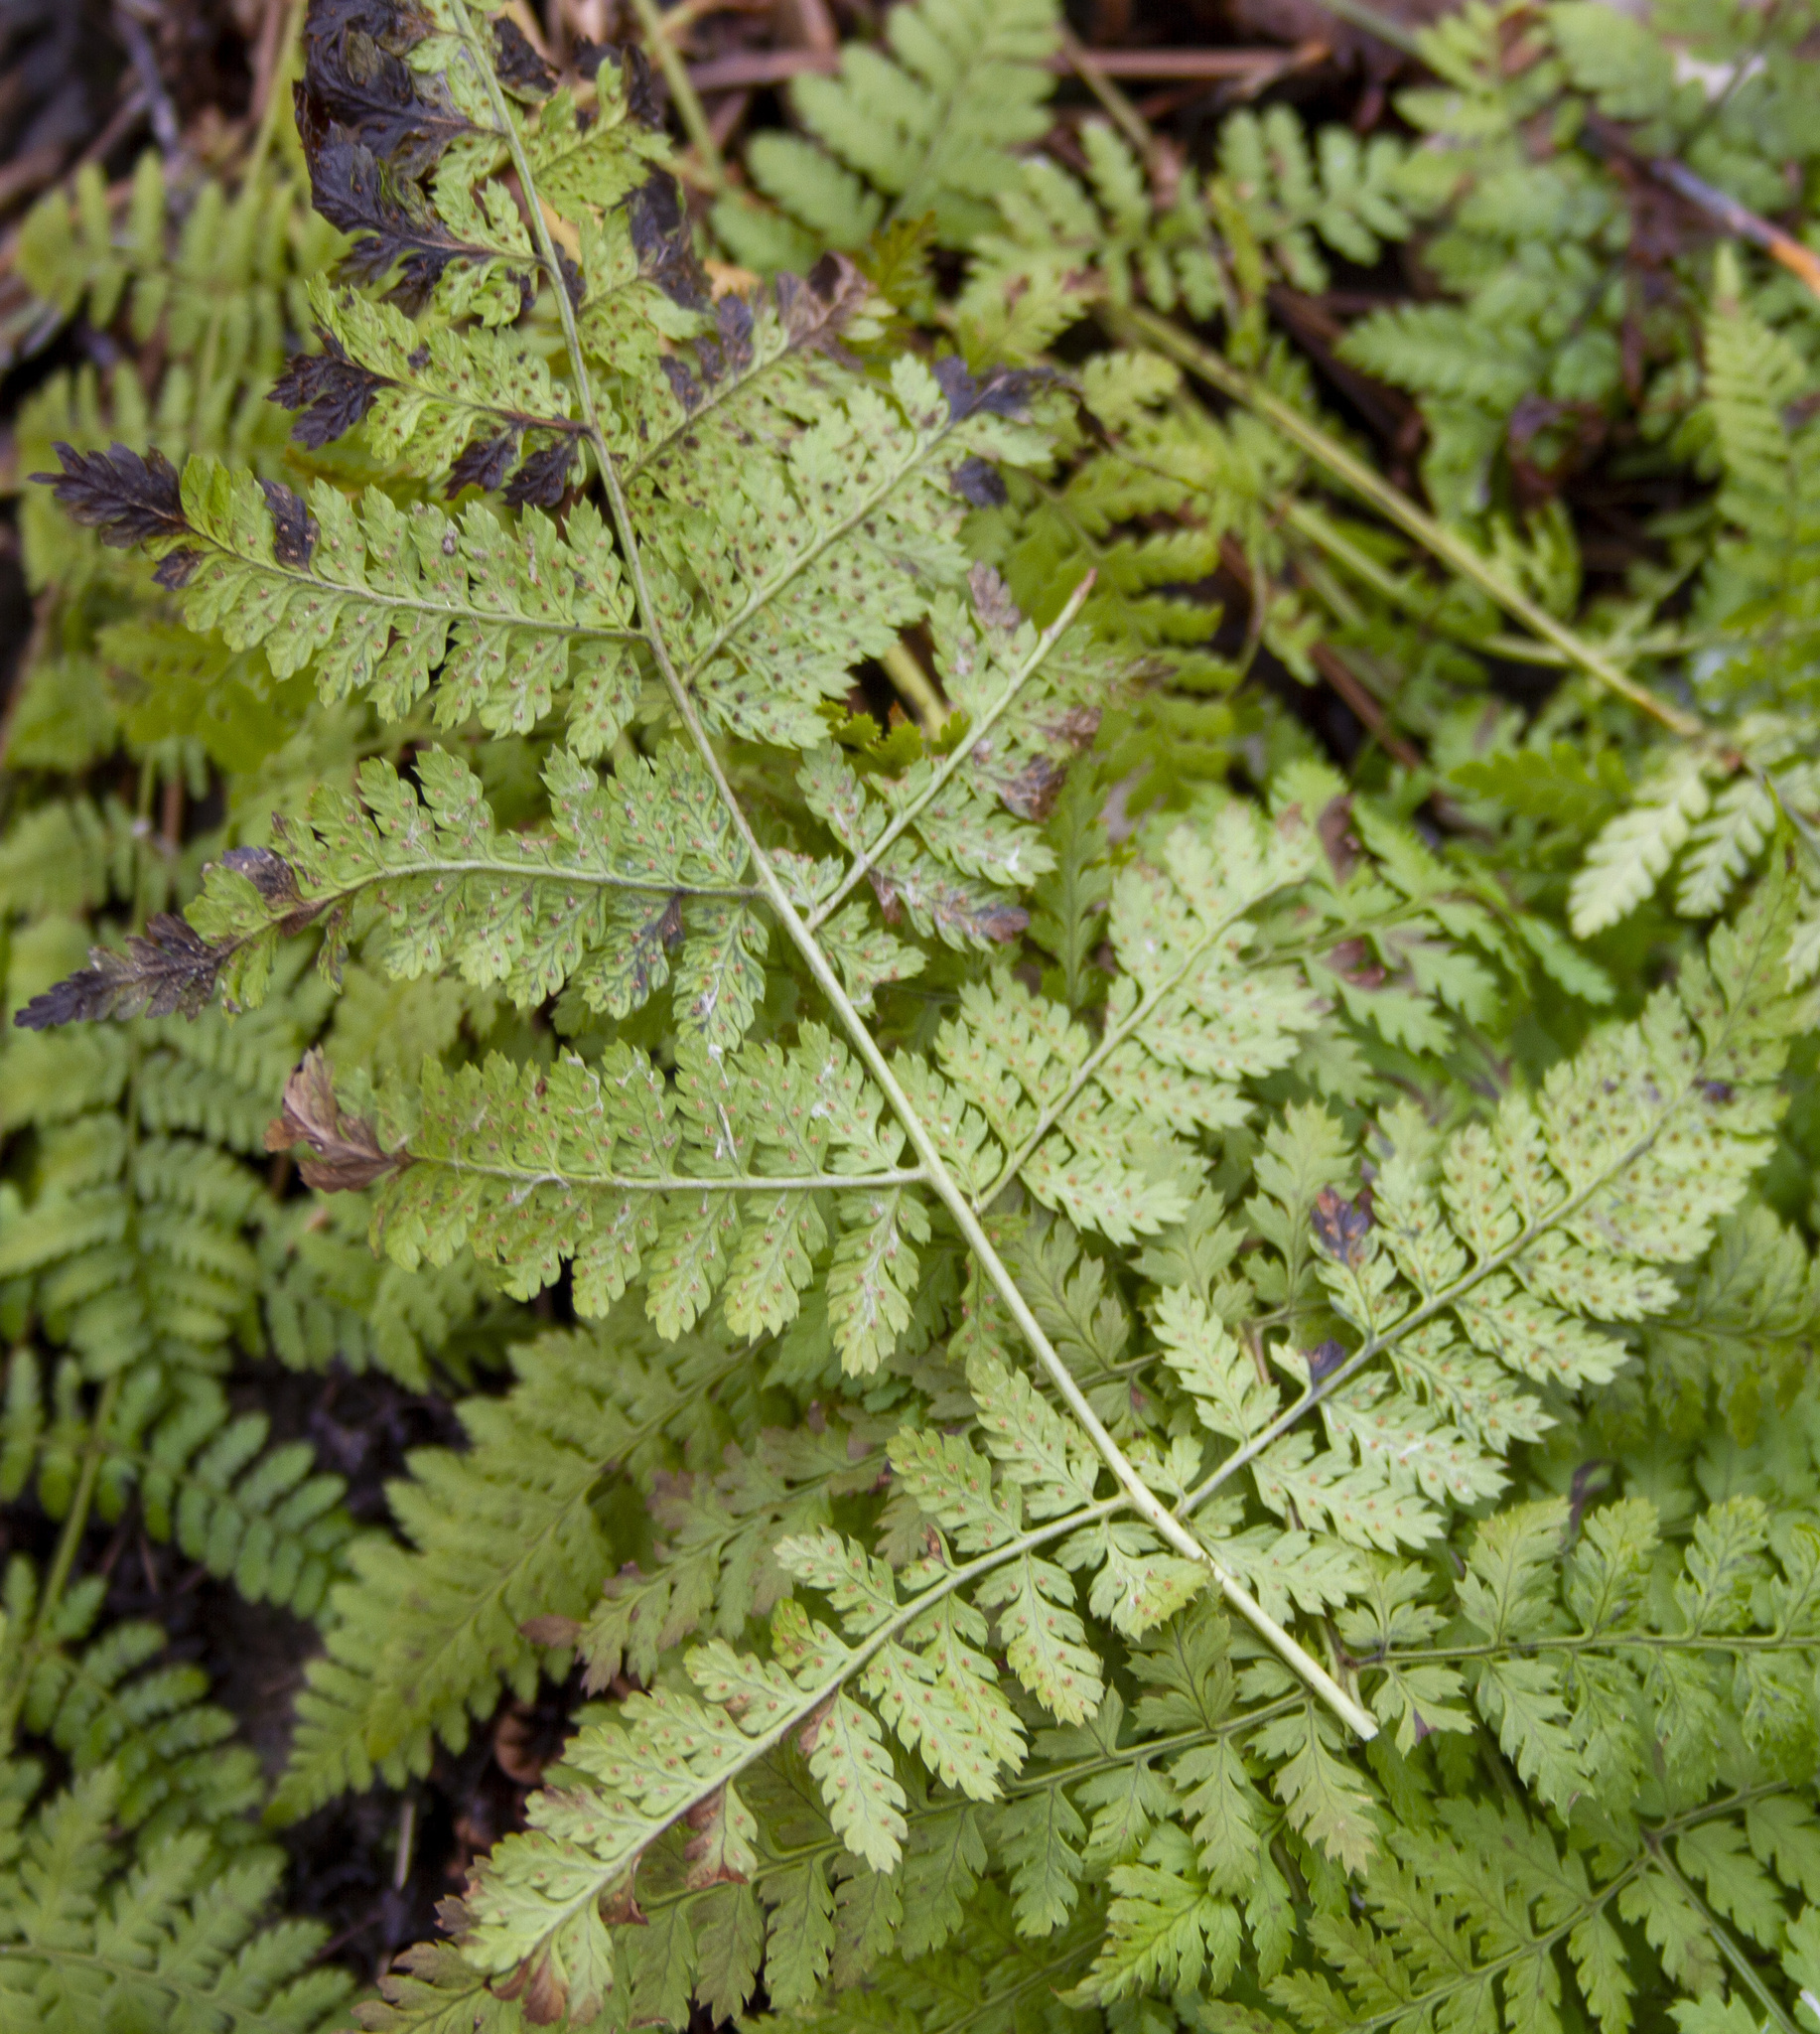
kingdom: Plantae
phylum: Tracheophyta
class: Polypodiopsida
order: Polypodiales
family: Dryopteridaceae
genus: Dryopteris
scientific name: Dryopteris intermedia
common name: Evergreen wood fern
